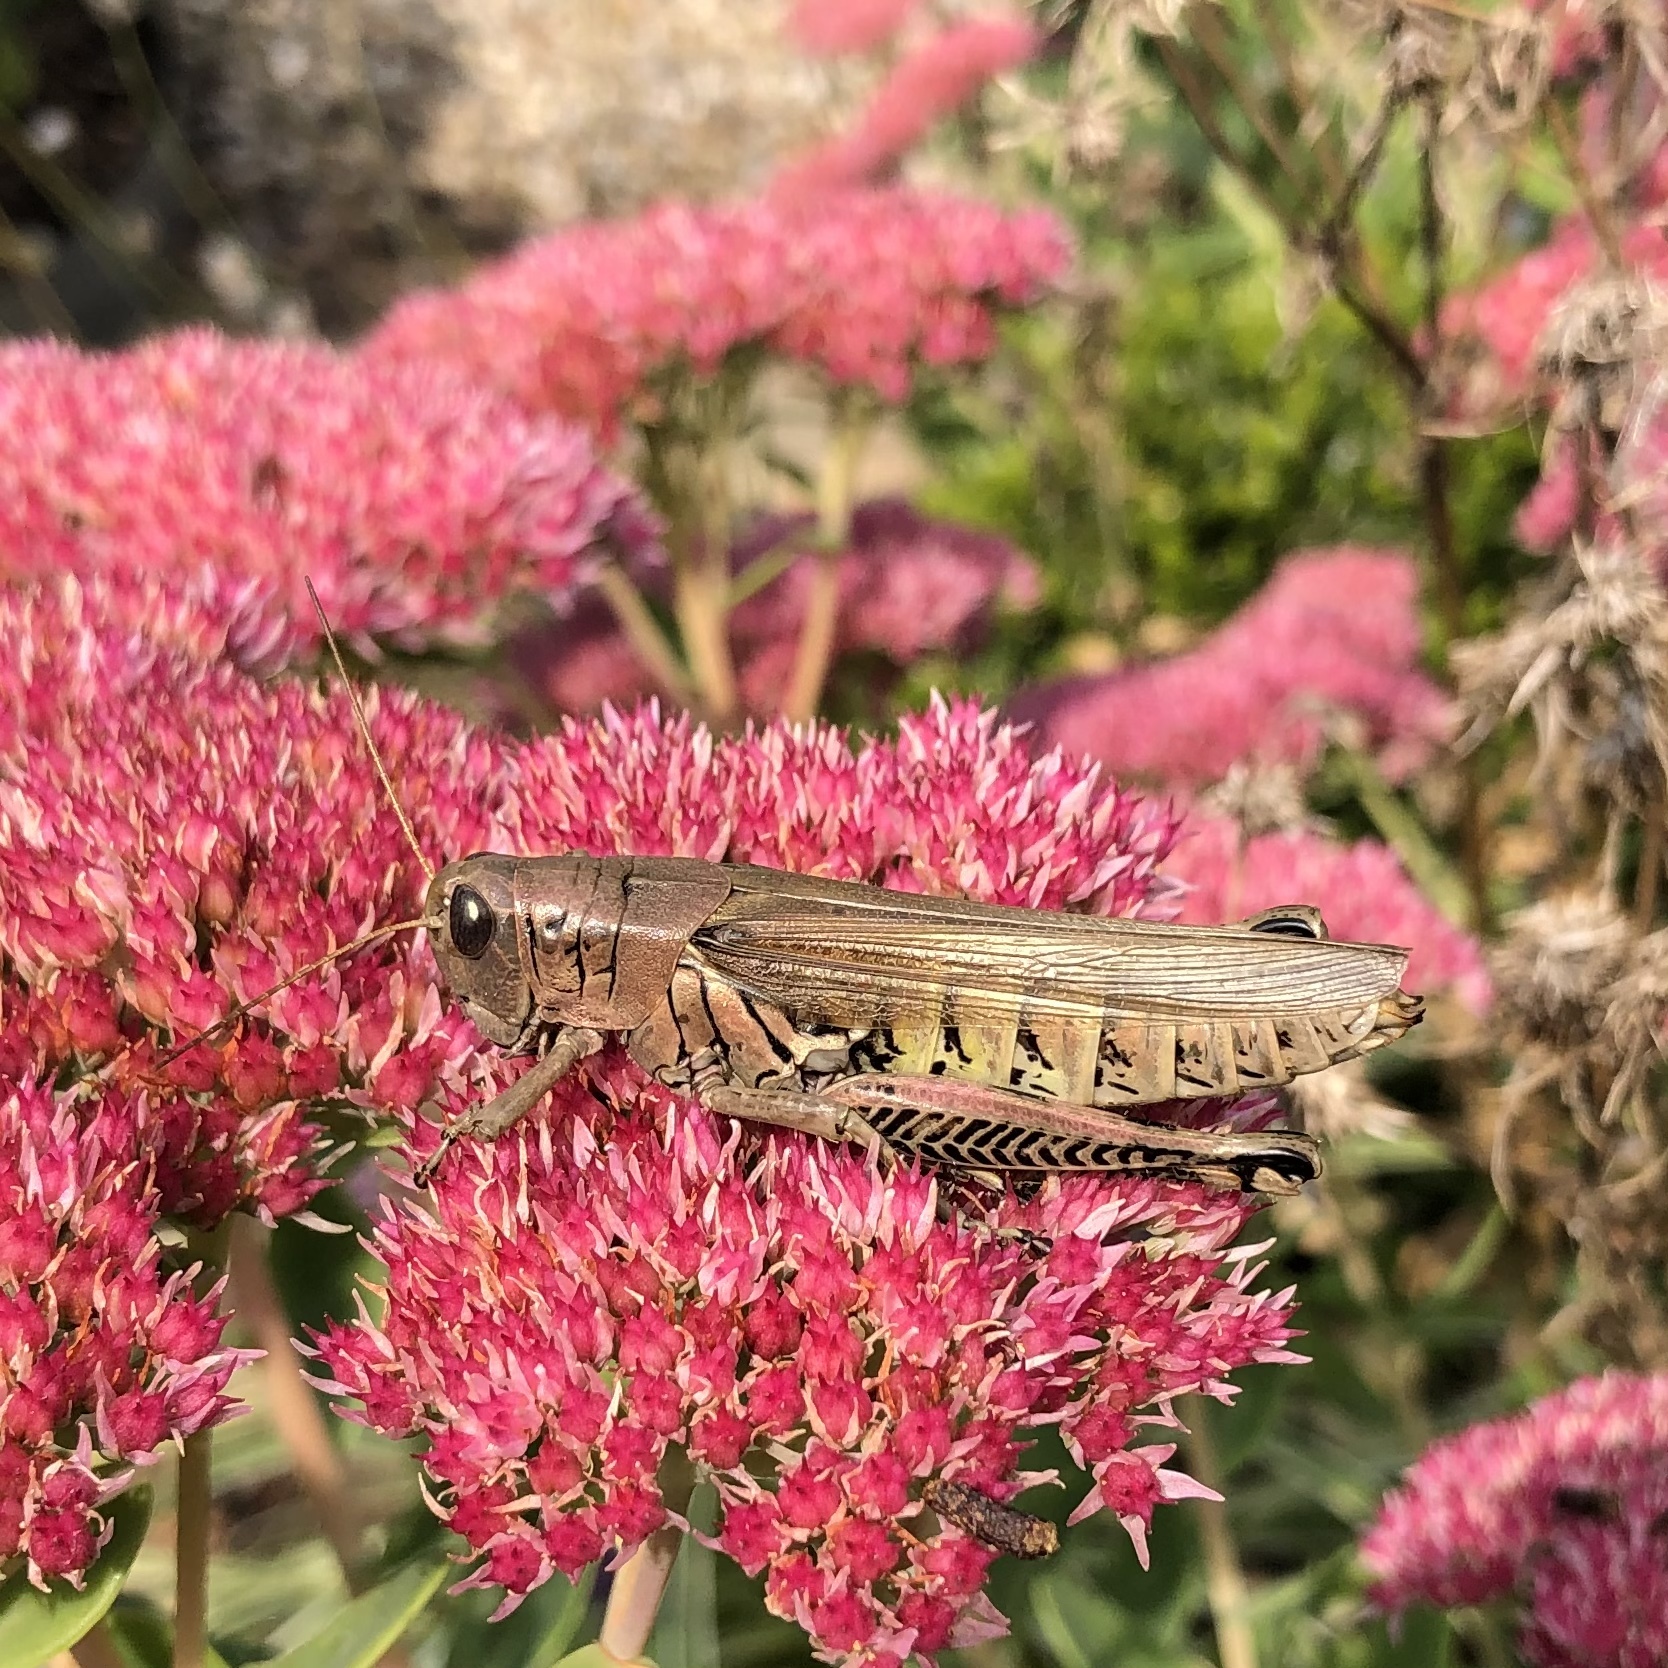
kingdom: Animalia
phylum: Arthropoda
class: Insecta
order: Orthoptera
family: Acrididae
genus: Melanoplus
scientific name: Melanoplus differentialis
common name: Differential grasshopper
